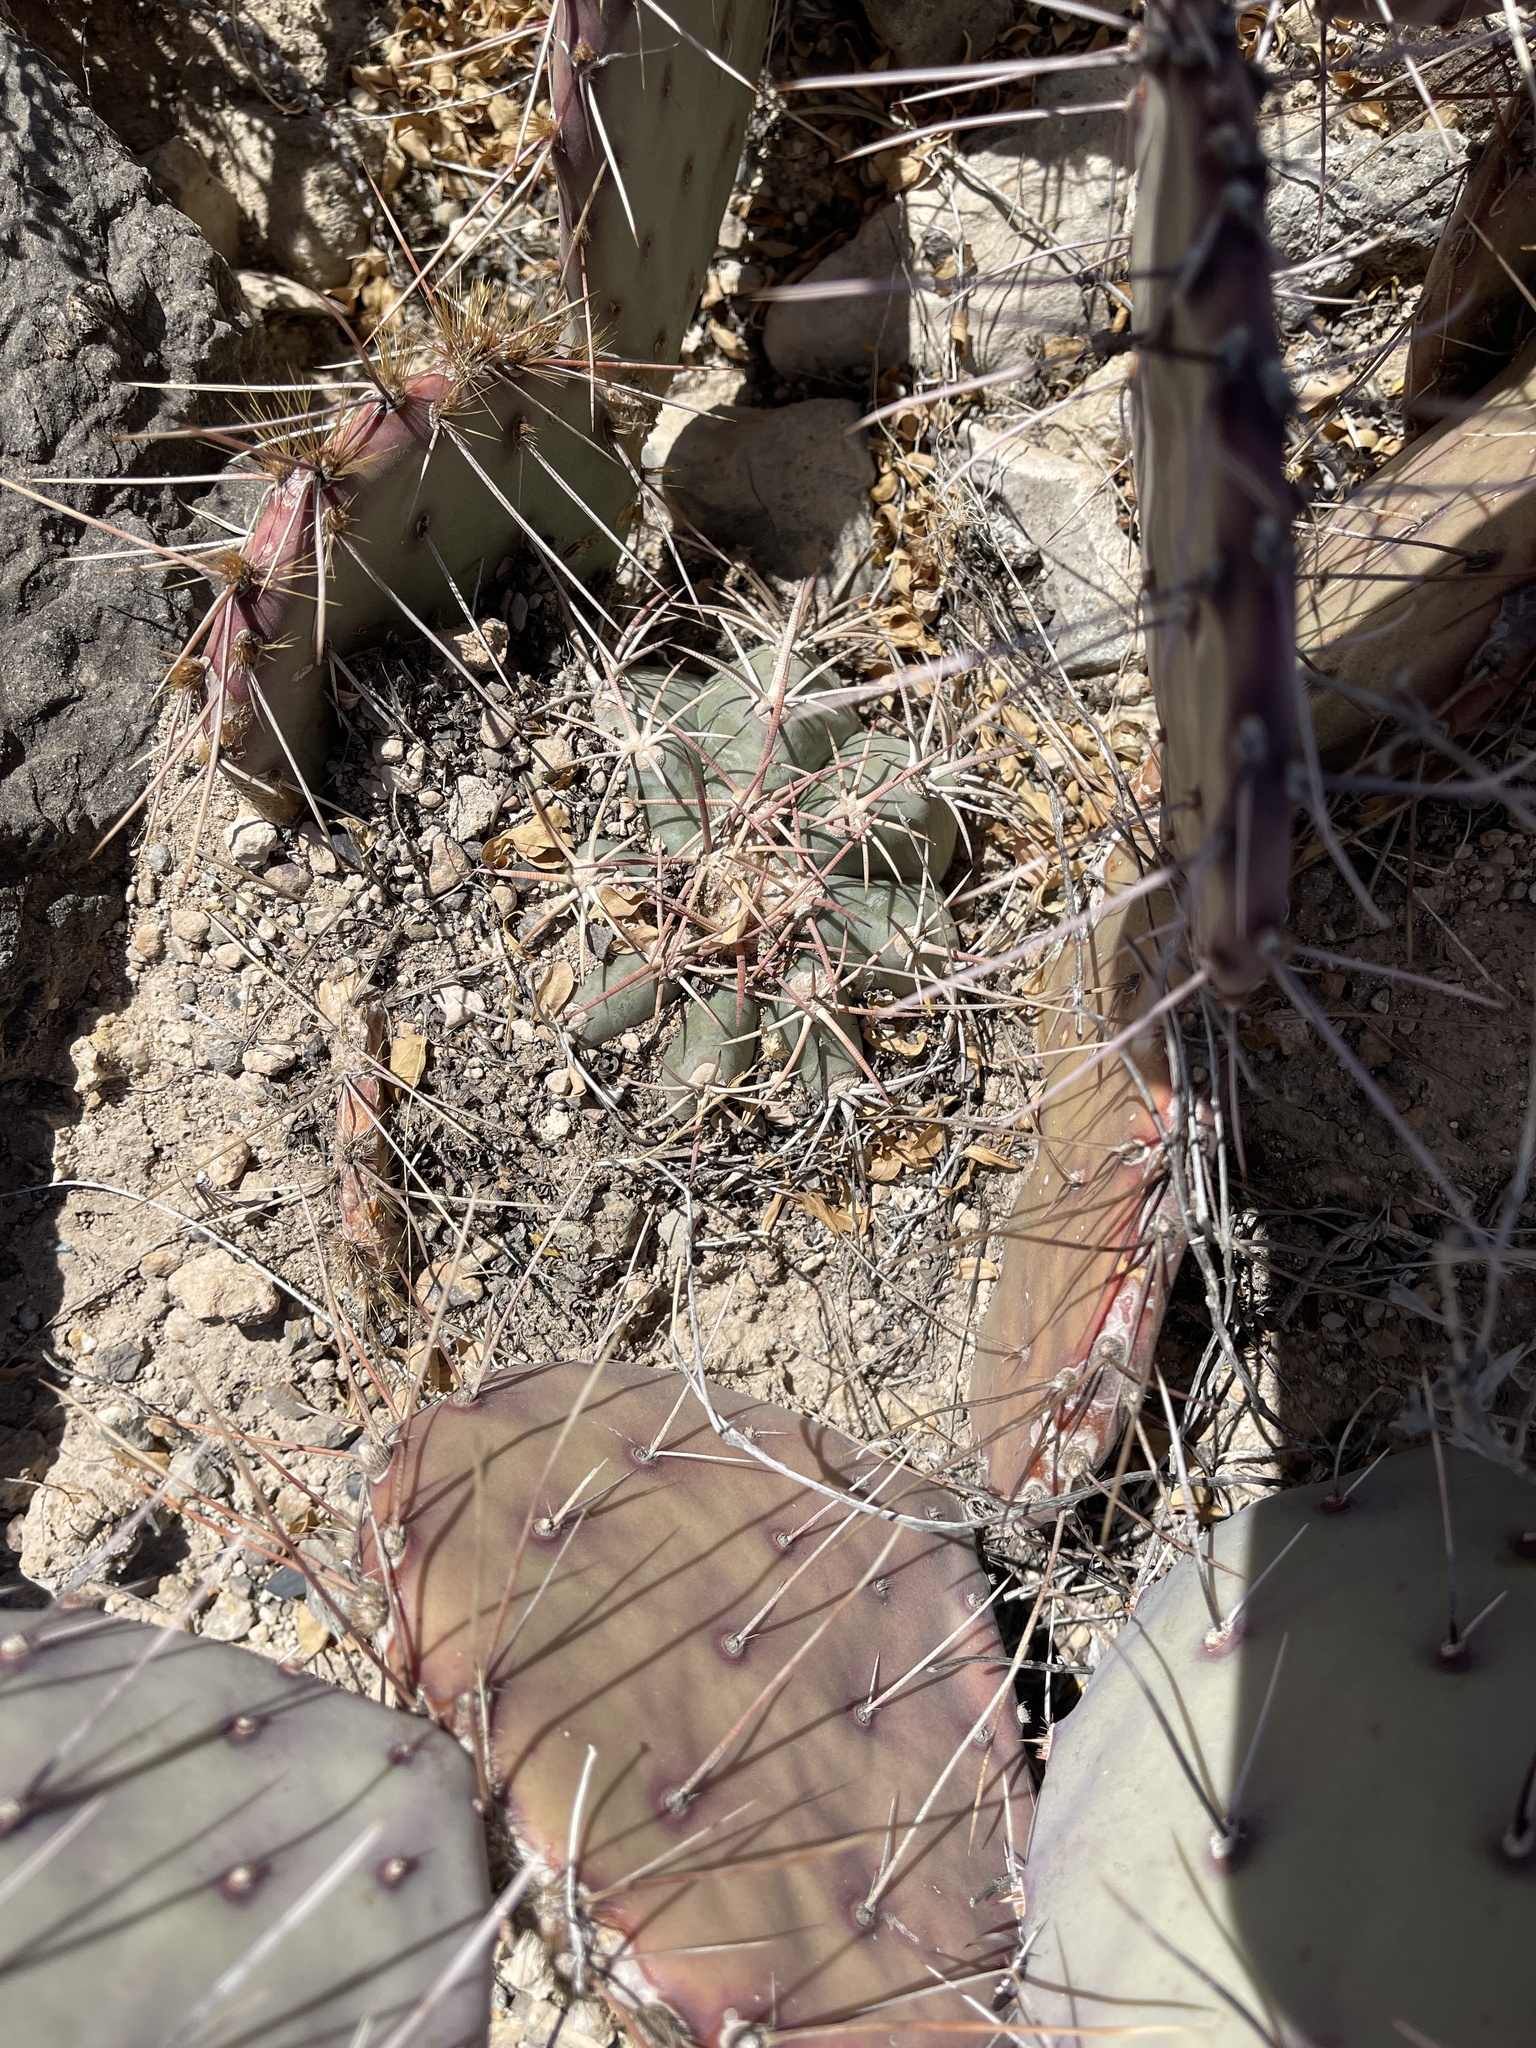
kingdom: Plantae
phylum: Tracheophyta
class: Magnoliopsida
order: Caryophyllales
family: Cactaceae
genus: Echinocactus
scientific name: Echinocactus horizonthalonius
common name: Devilshead
